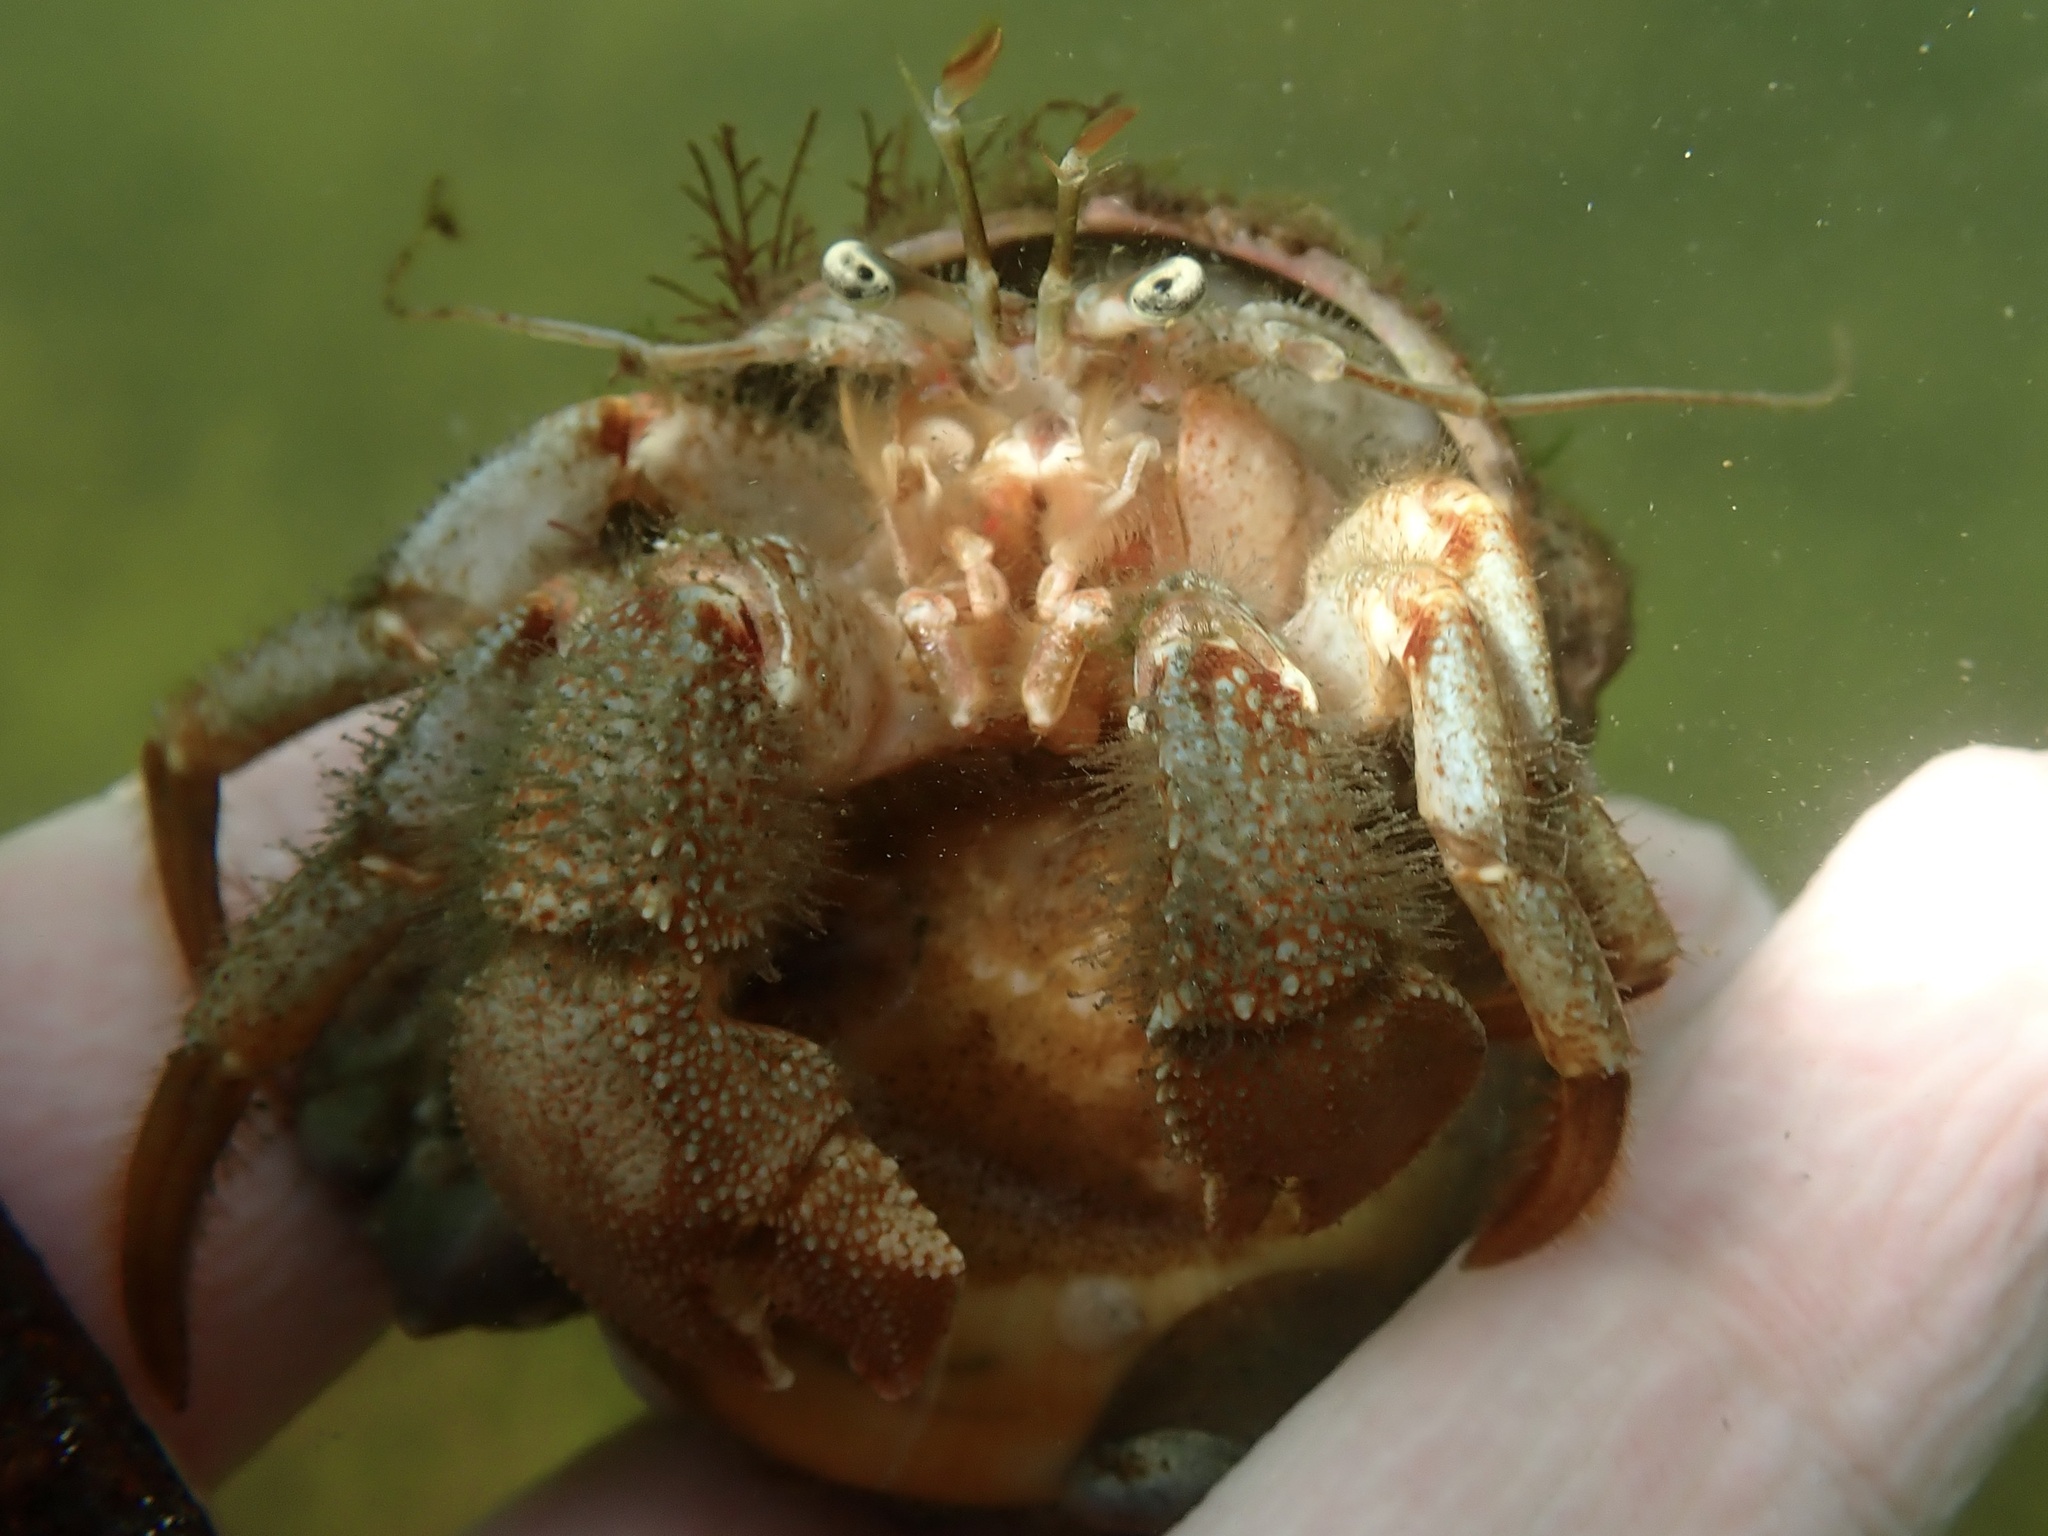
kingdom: Animalia
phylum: Arthropoda
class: Malacostraca
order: Decapoda
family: Paguridae
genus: Pagurus
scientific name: Pagurus pollicaris
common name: Flatclaw hermit
